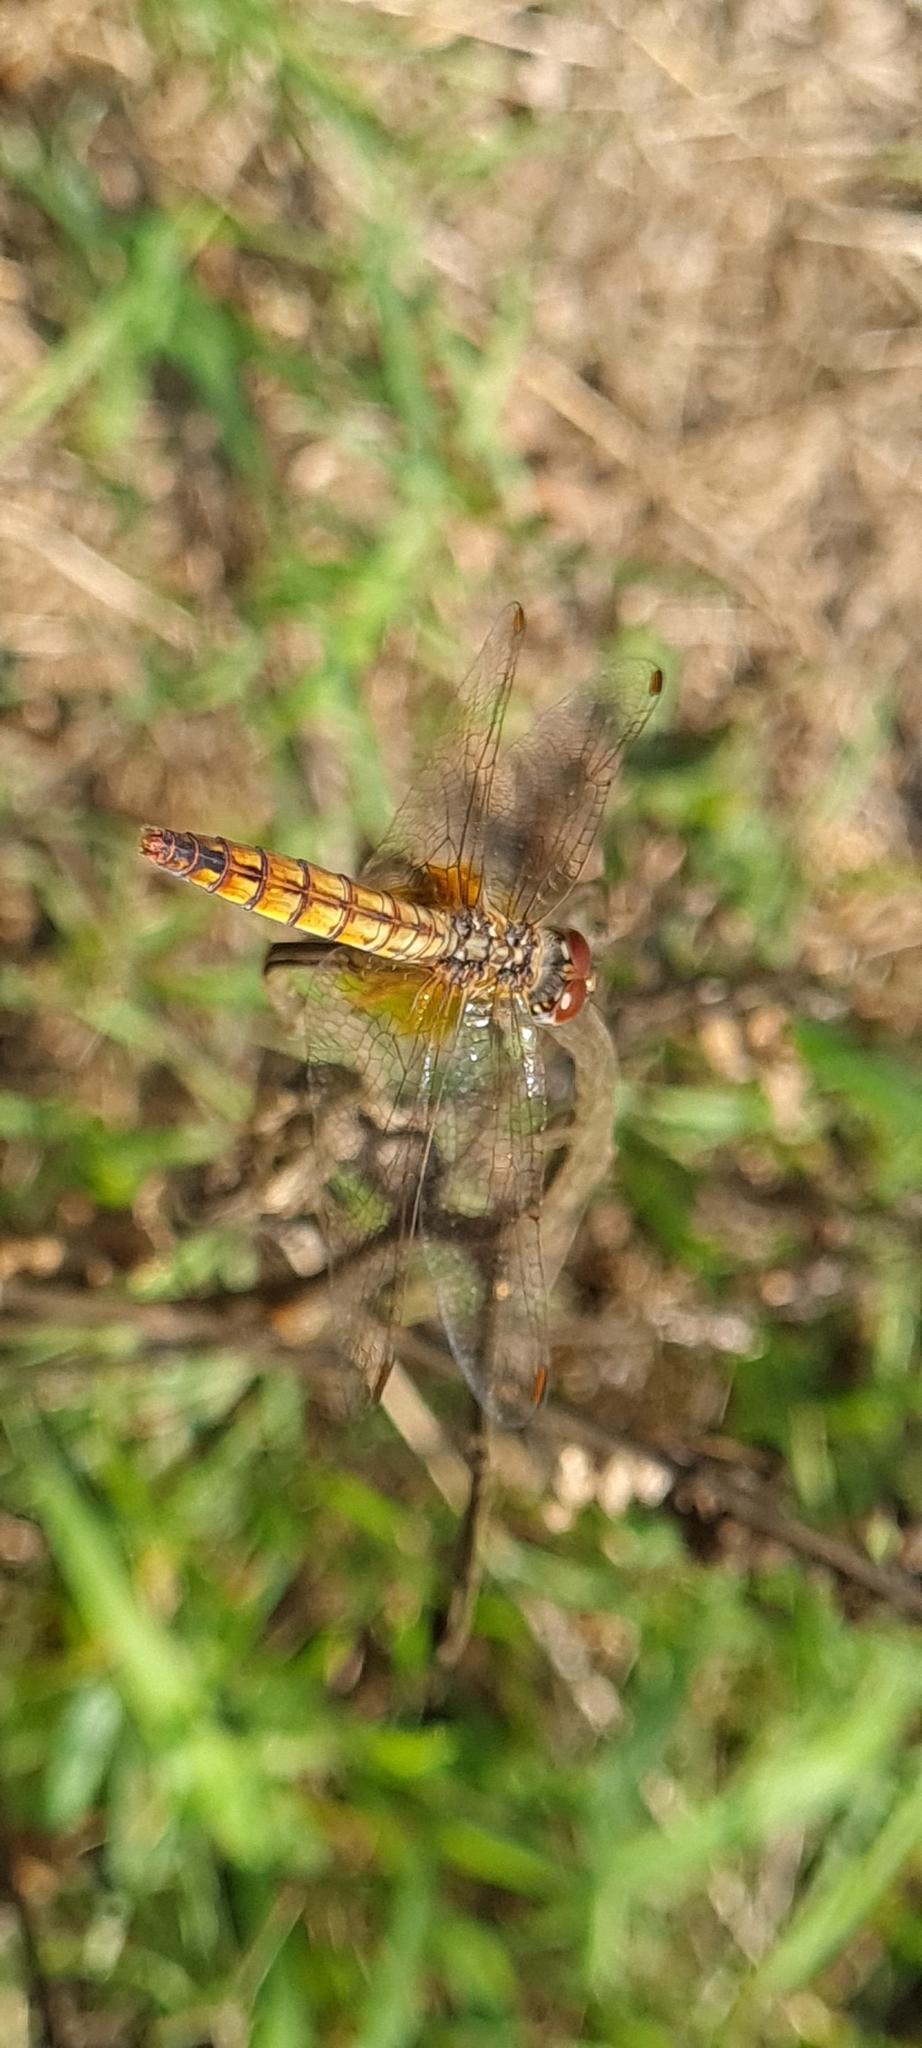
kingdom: Animalia
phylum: Arthropoda
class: Insecta
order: Odonata
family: Libellulidae
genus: Trithemis
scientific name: Trithemis annulata
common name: Violet dropwing
